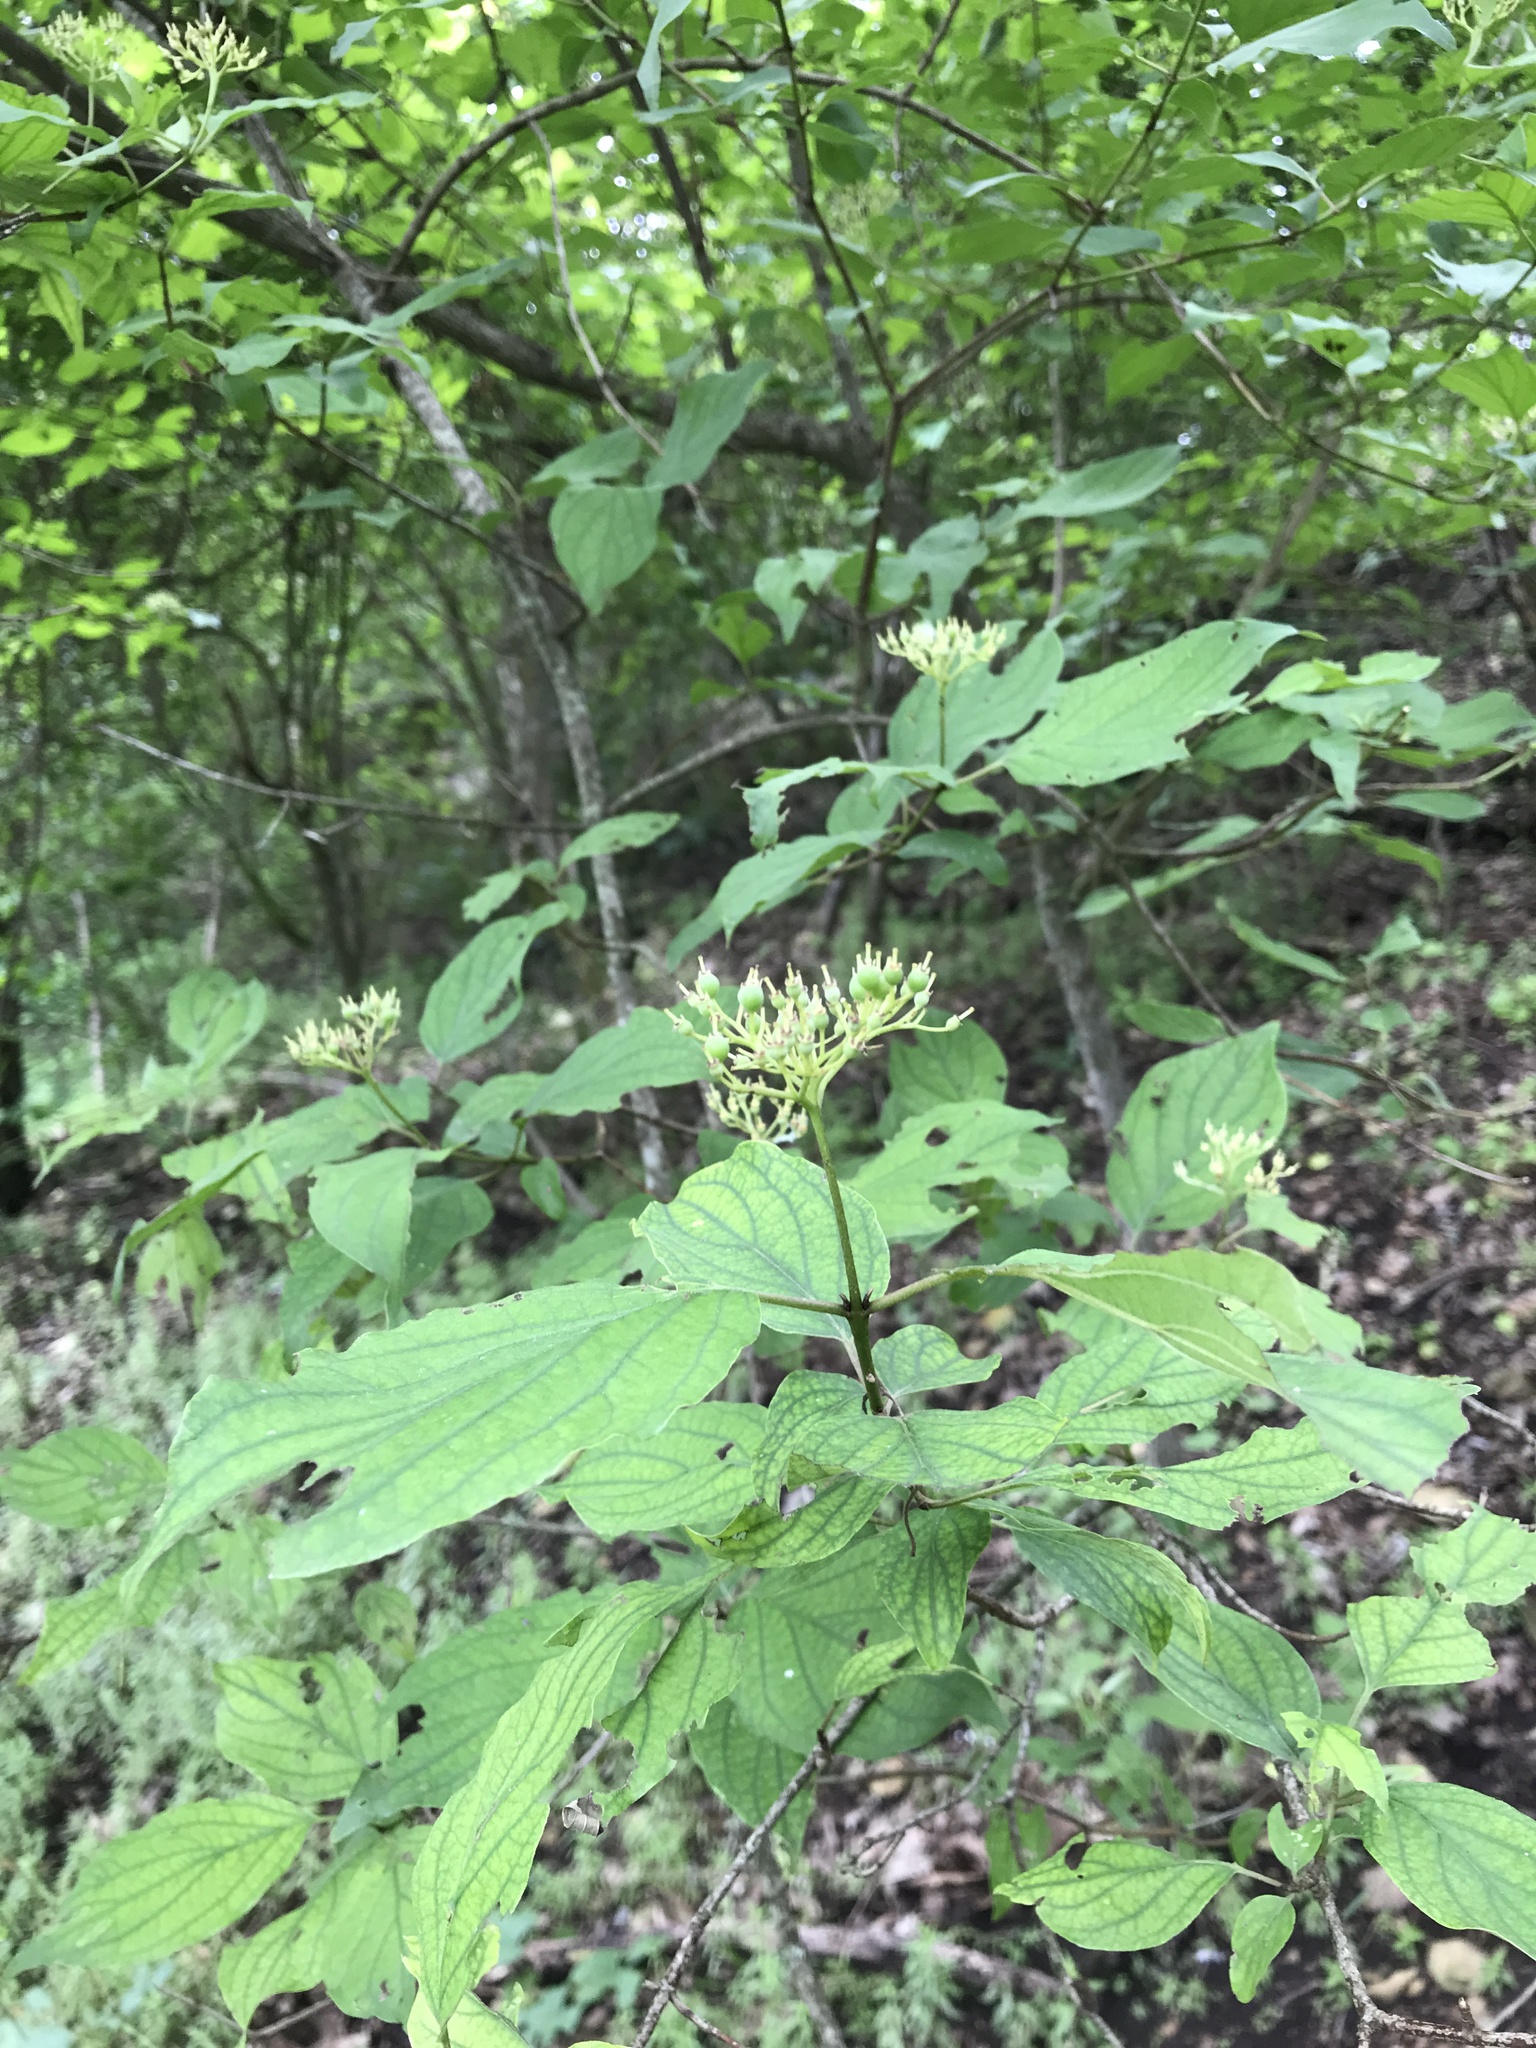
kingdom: Plantae
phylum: Tracheophyta
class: Magnoliopsida
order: Cornales
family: Cornaceae
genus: Cornus
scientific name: Cornus drummondii
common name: Rough-leaf dogwood
